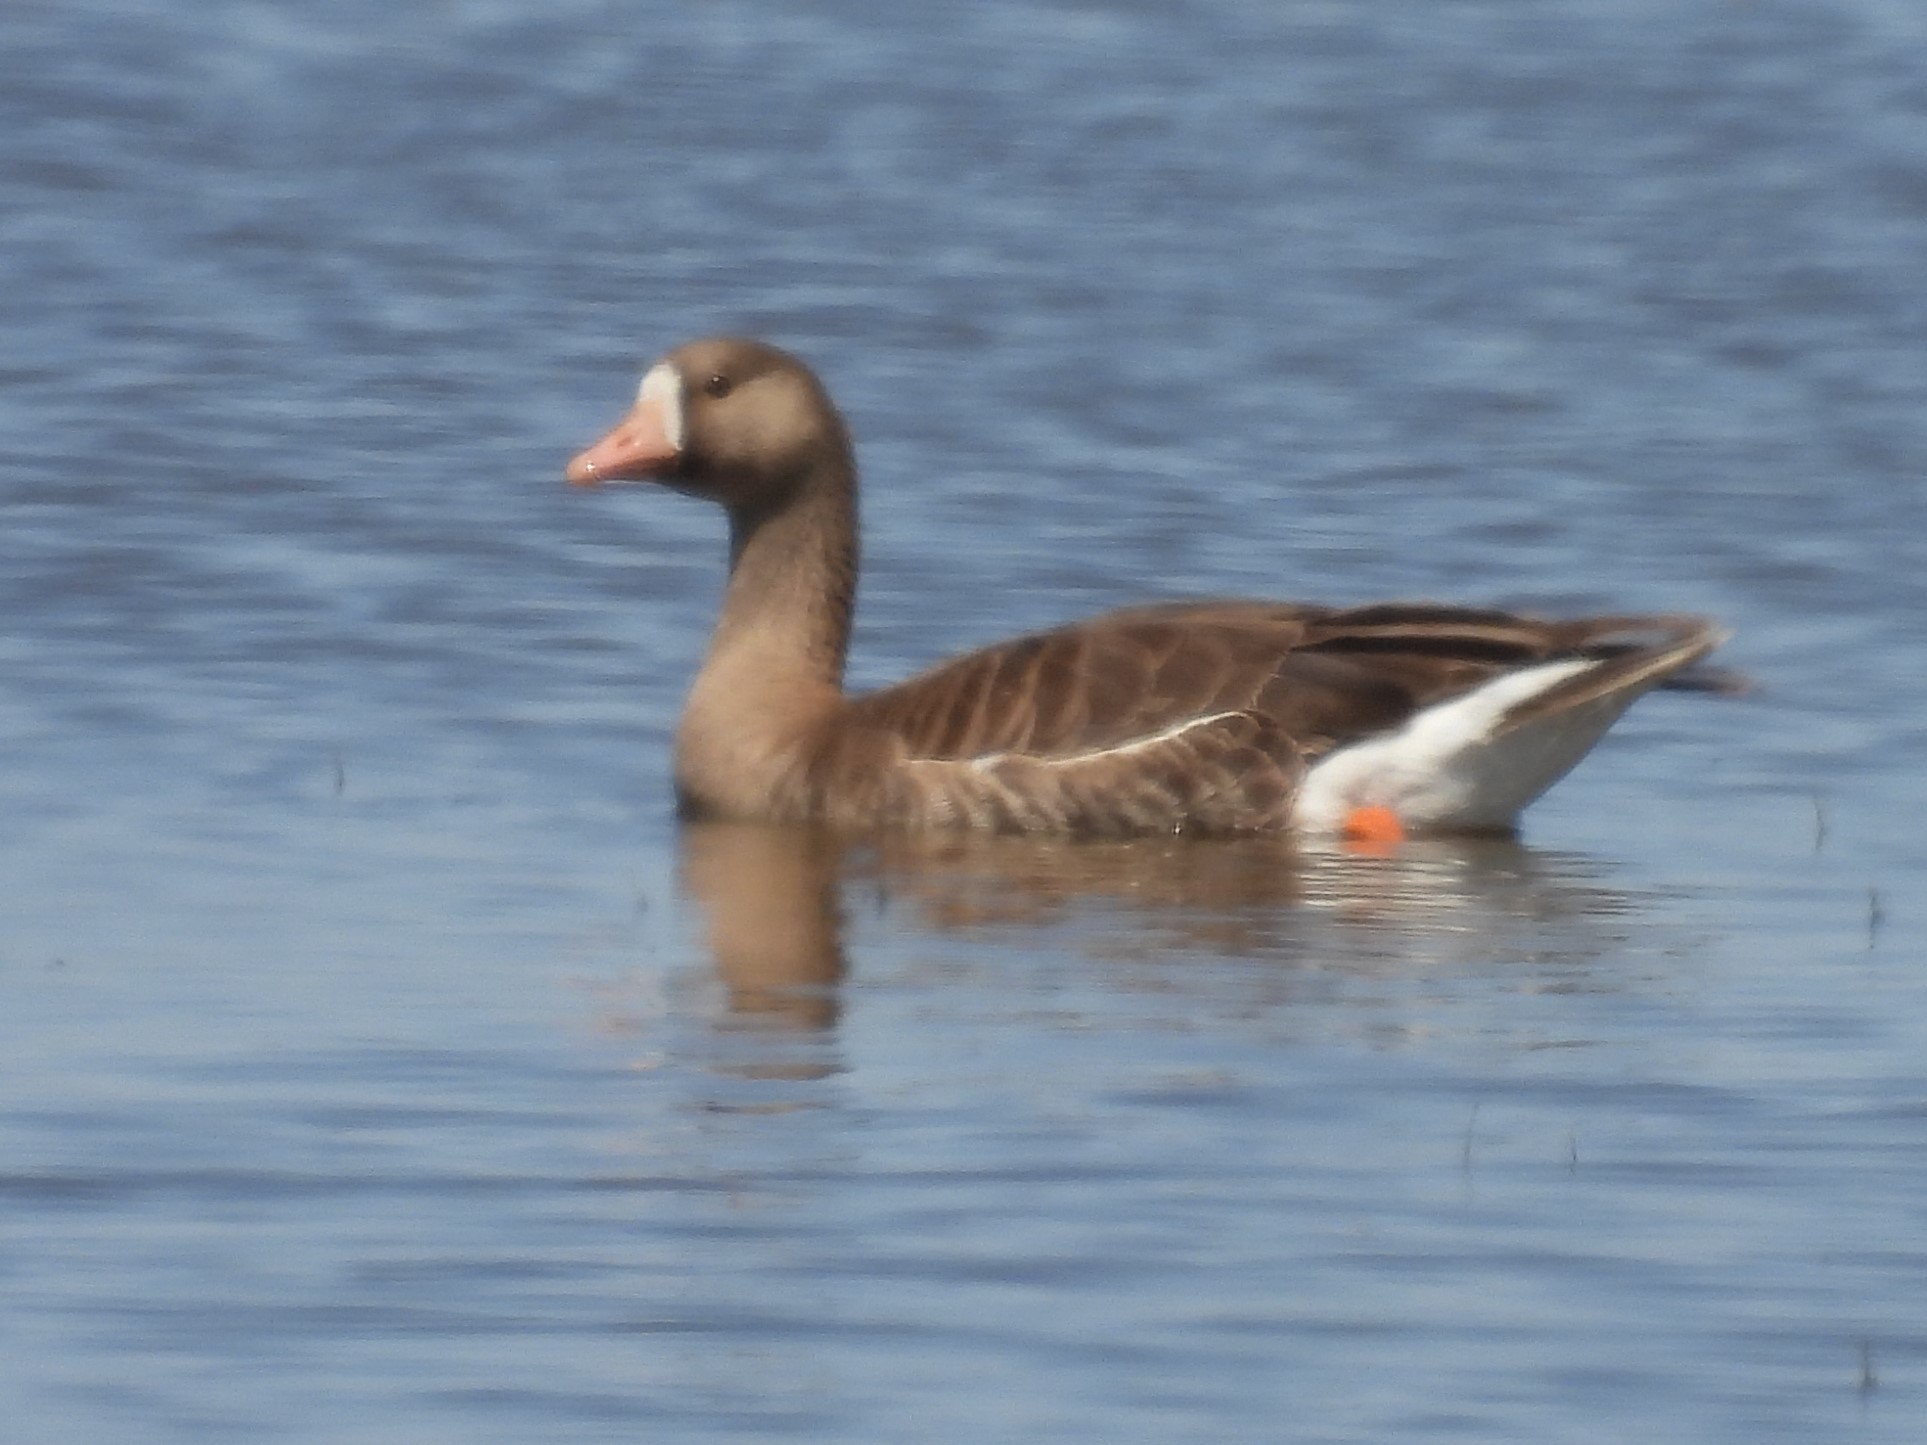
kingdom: Animalia
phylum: Chordata
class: Aves
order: Anseriformes
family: Anatidae
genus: Anser
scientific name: Anser albifrons
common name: Greater white-fronted goose
